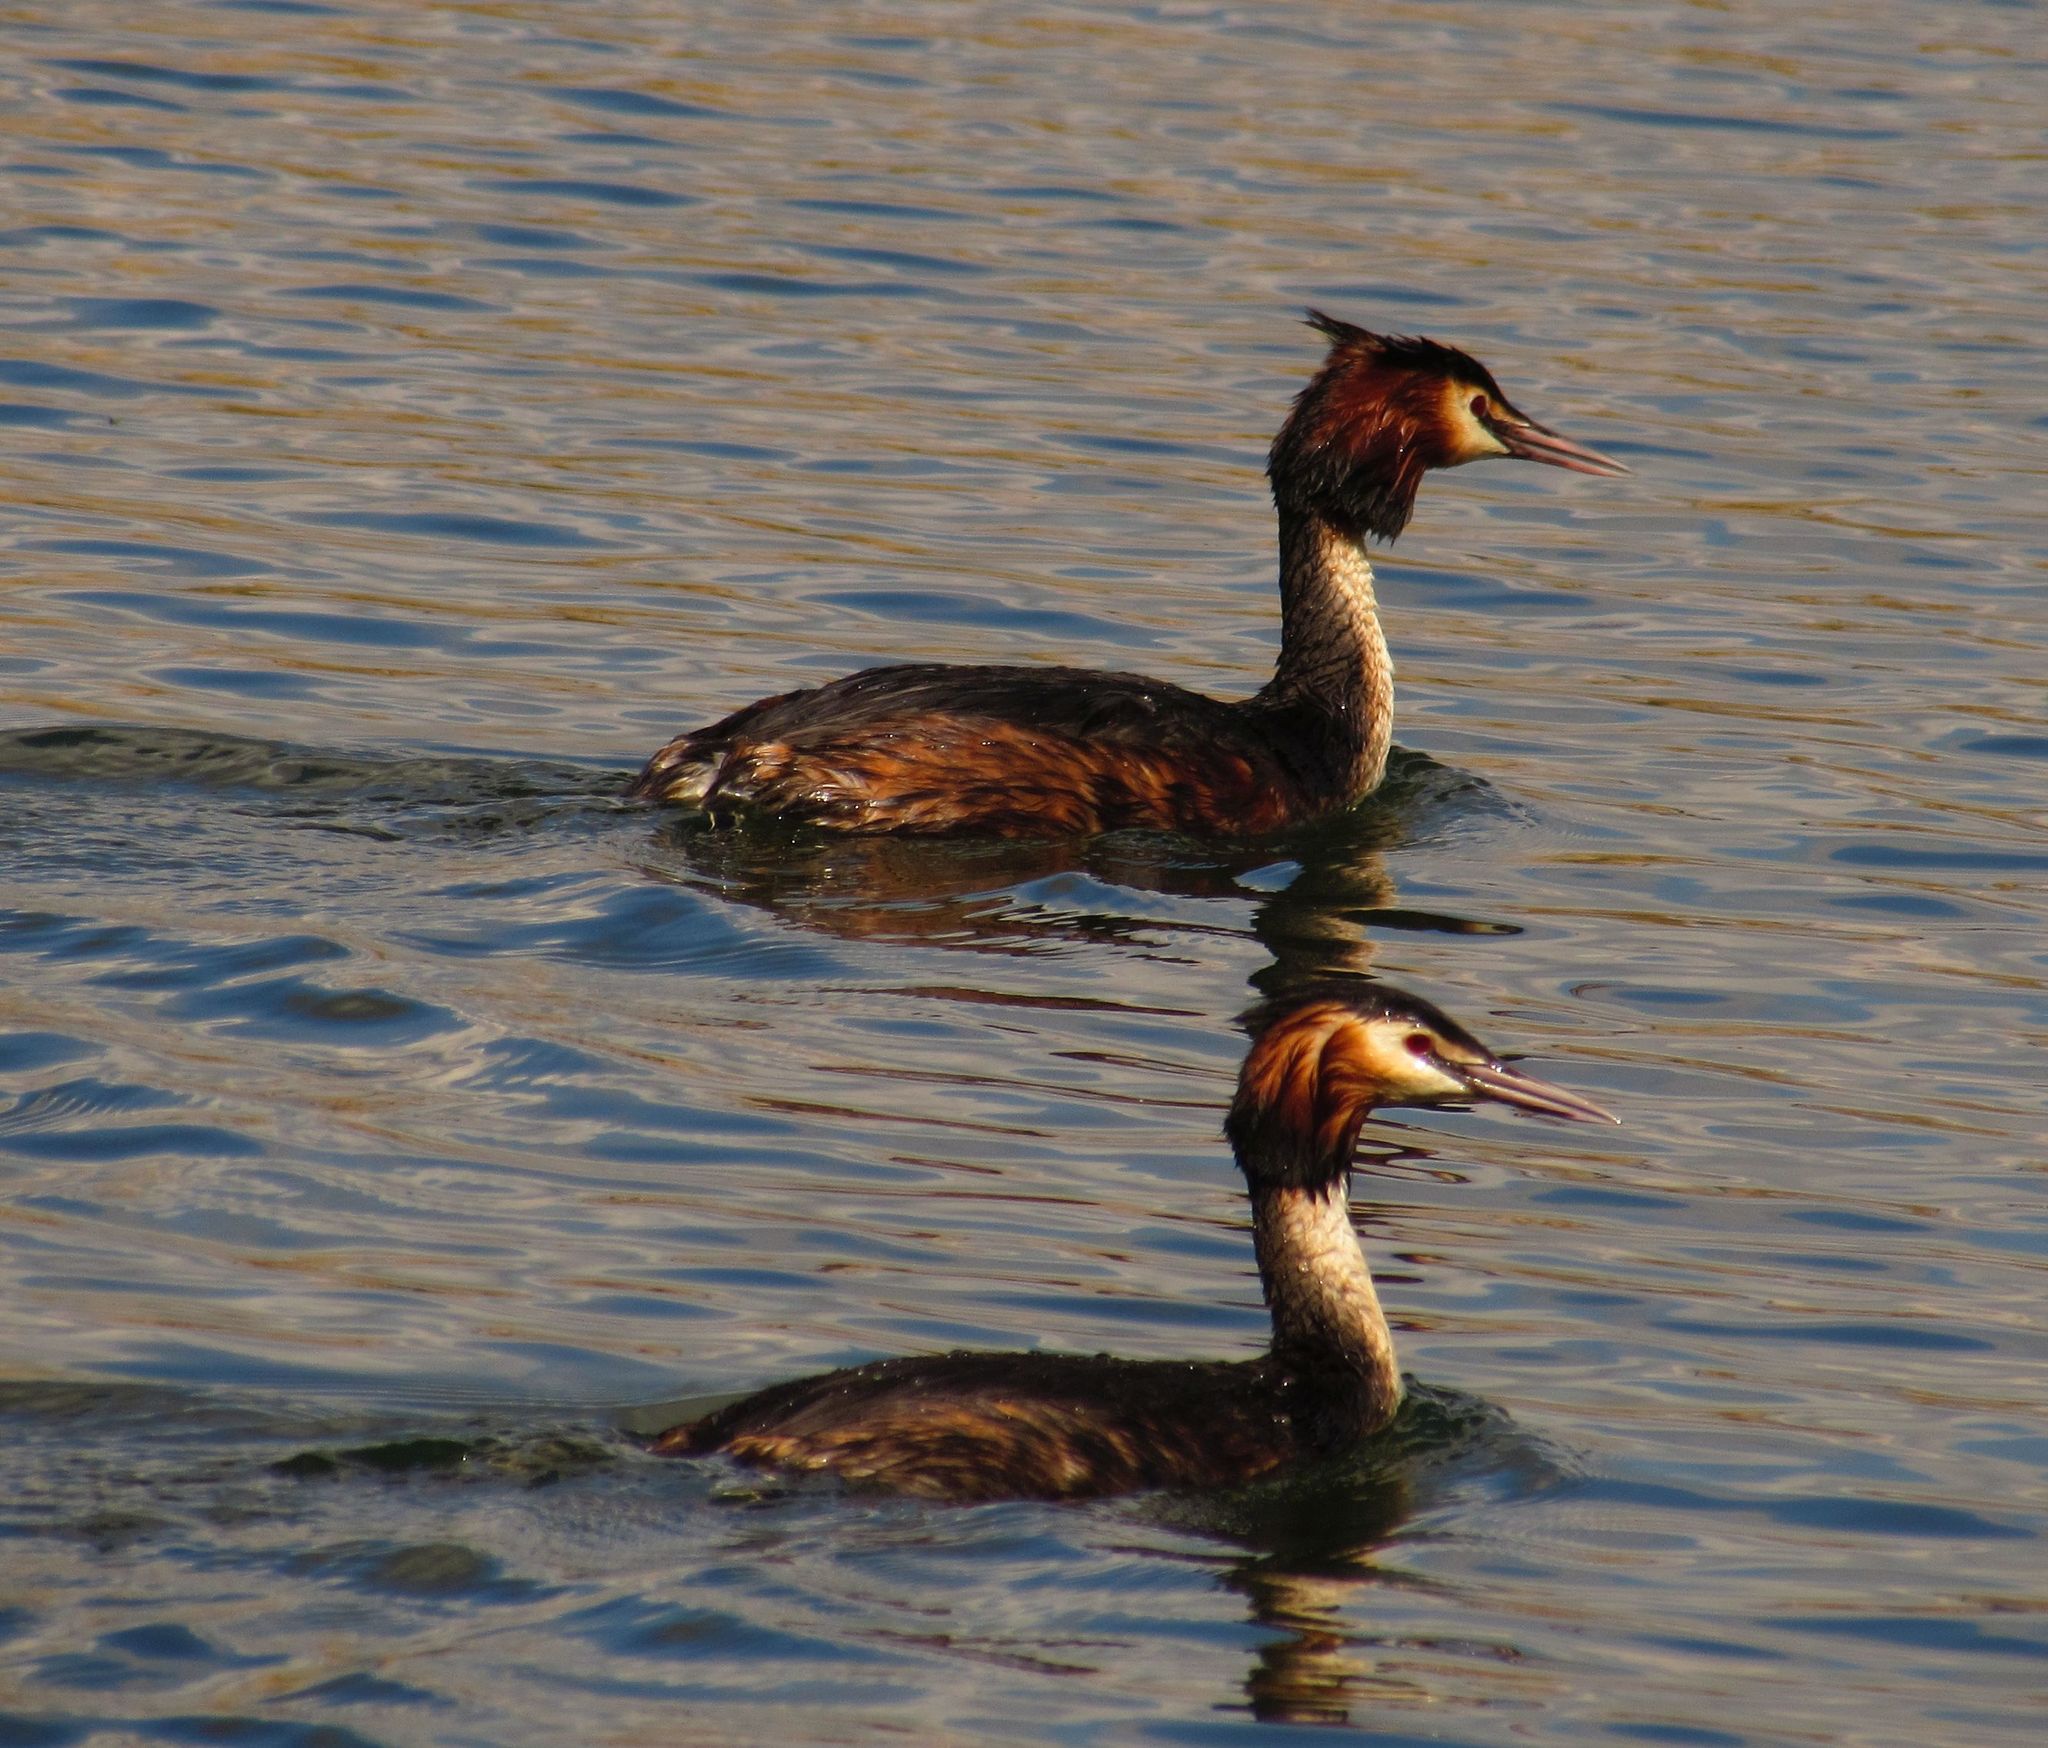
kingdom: Animalia
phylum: Chordata
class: Aves
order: Podicipediformes
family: Podicipedidae
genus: Podiceps
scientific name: Podiceps cristatus
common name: Great crested grebe
